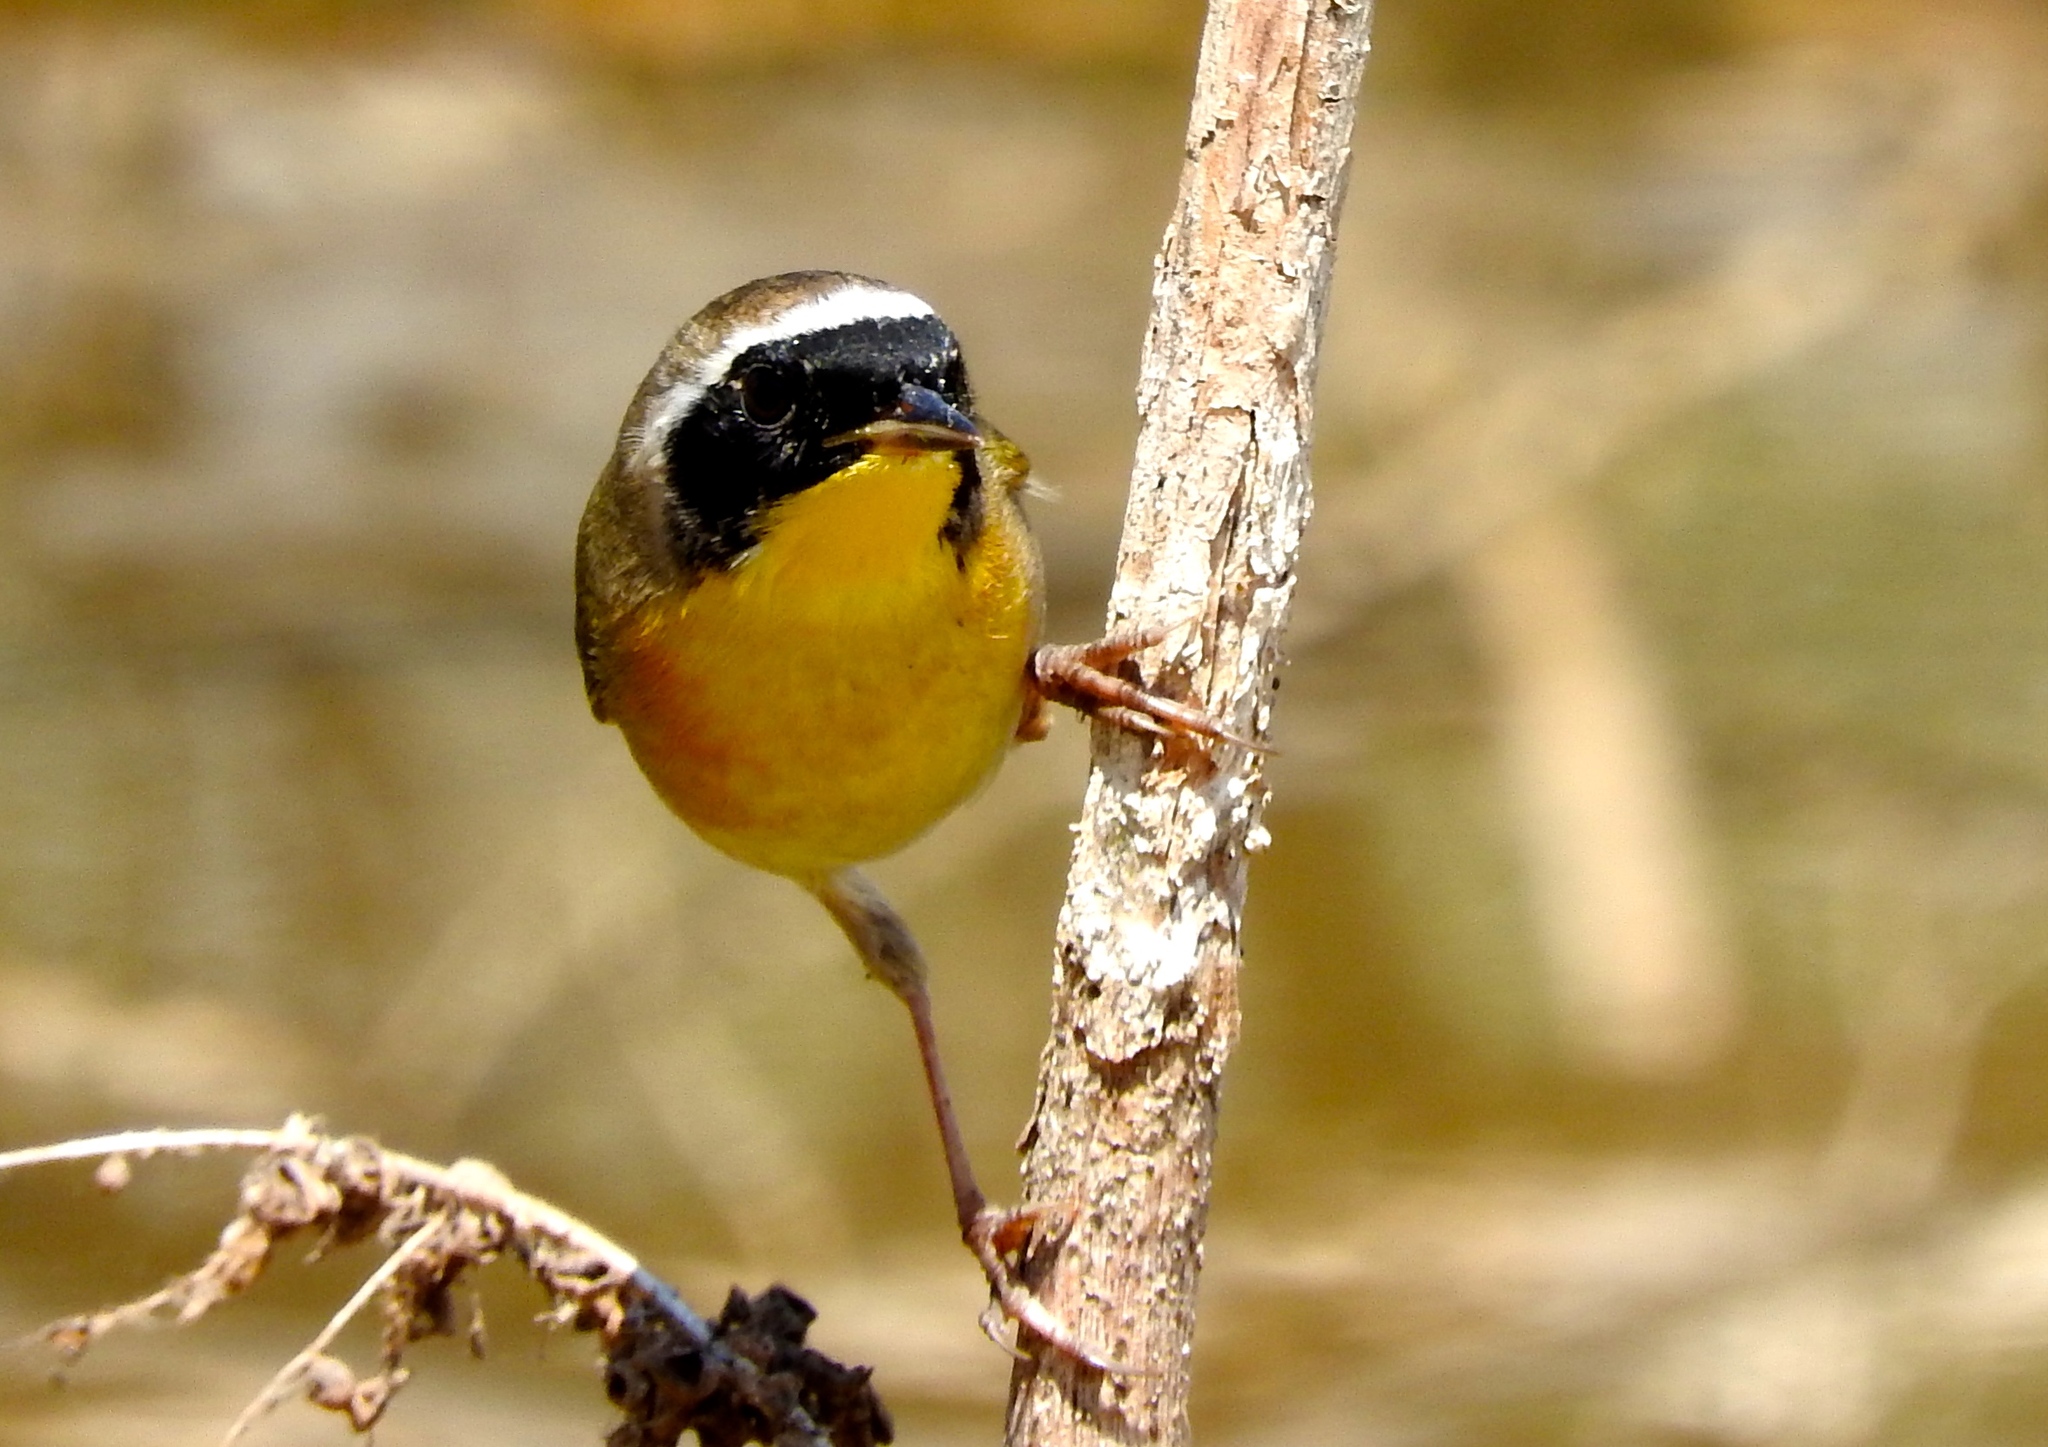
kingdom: Animalia
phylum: Chordata
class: Aves
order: Passeriformes
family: Parulidae
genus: Geothlypis
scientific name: Geothlypis trichas
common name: Common yellowthroat
